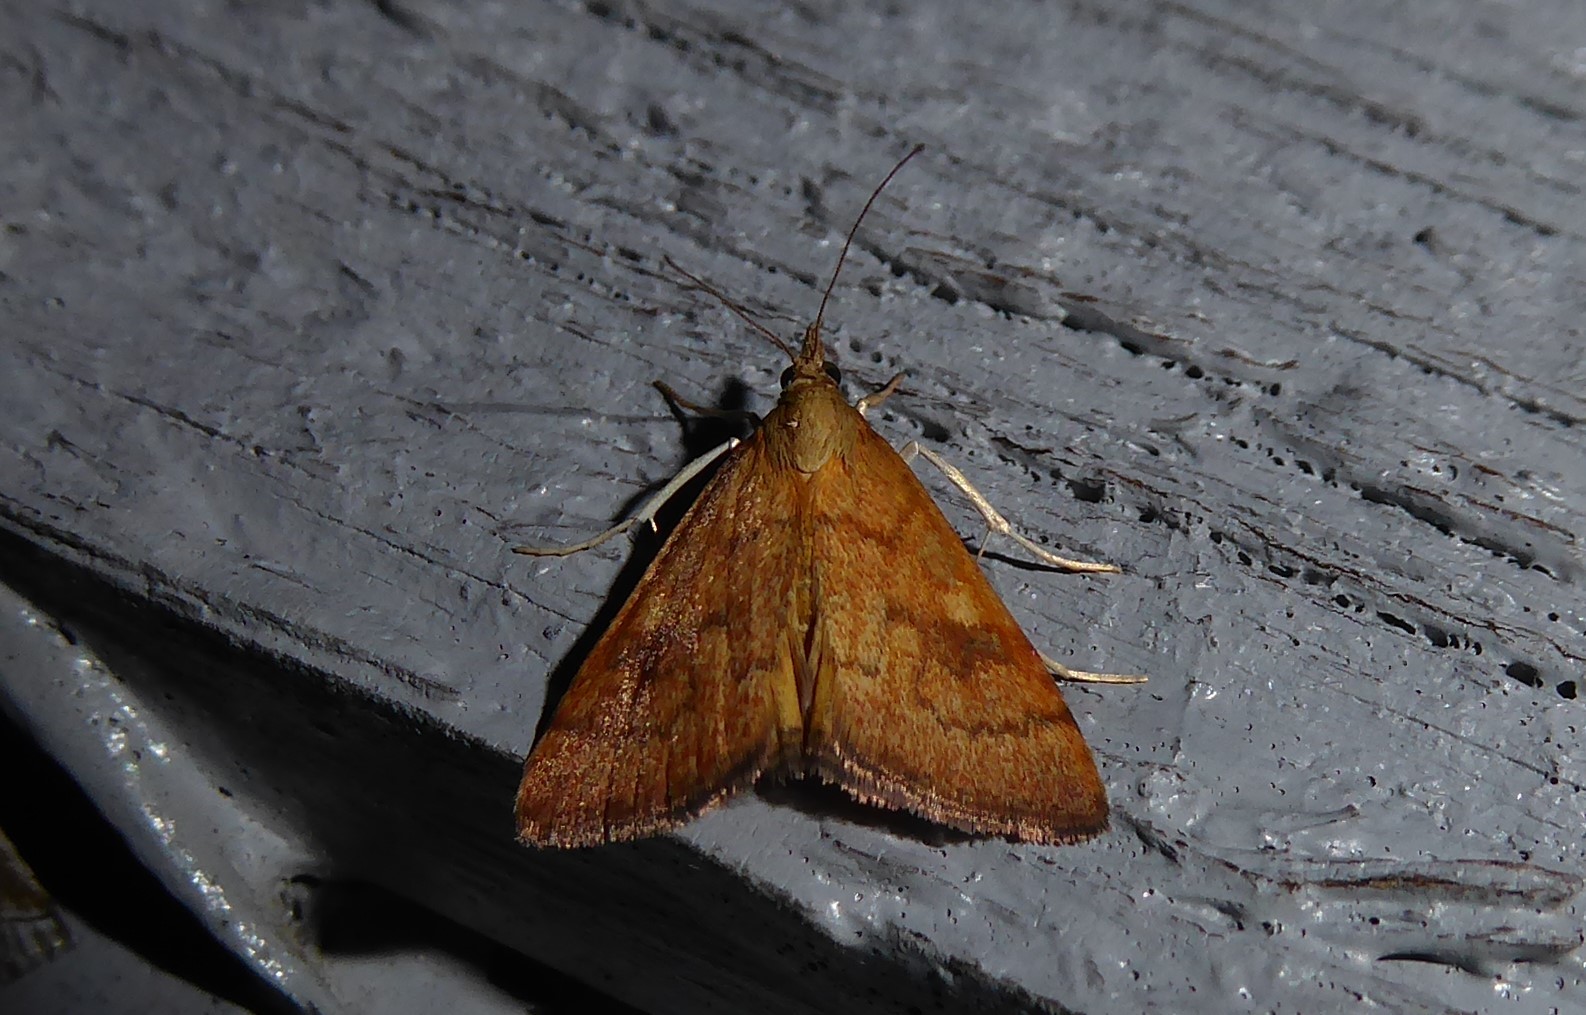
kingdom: Animalia
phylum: Arthropoda
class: Insecta
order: Lepidoptera
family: Crambidae
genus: Udea
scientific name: Udea Mnesictena flavidalis
